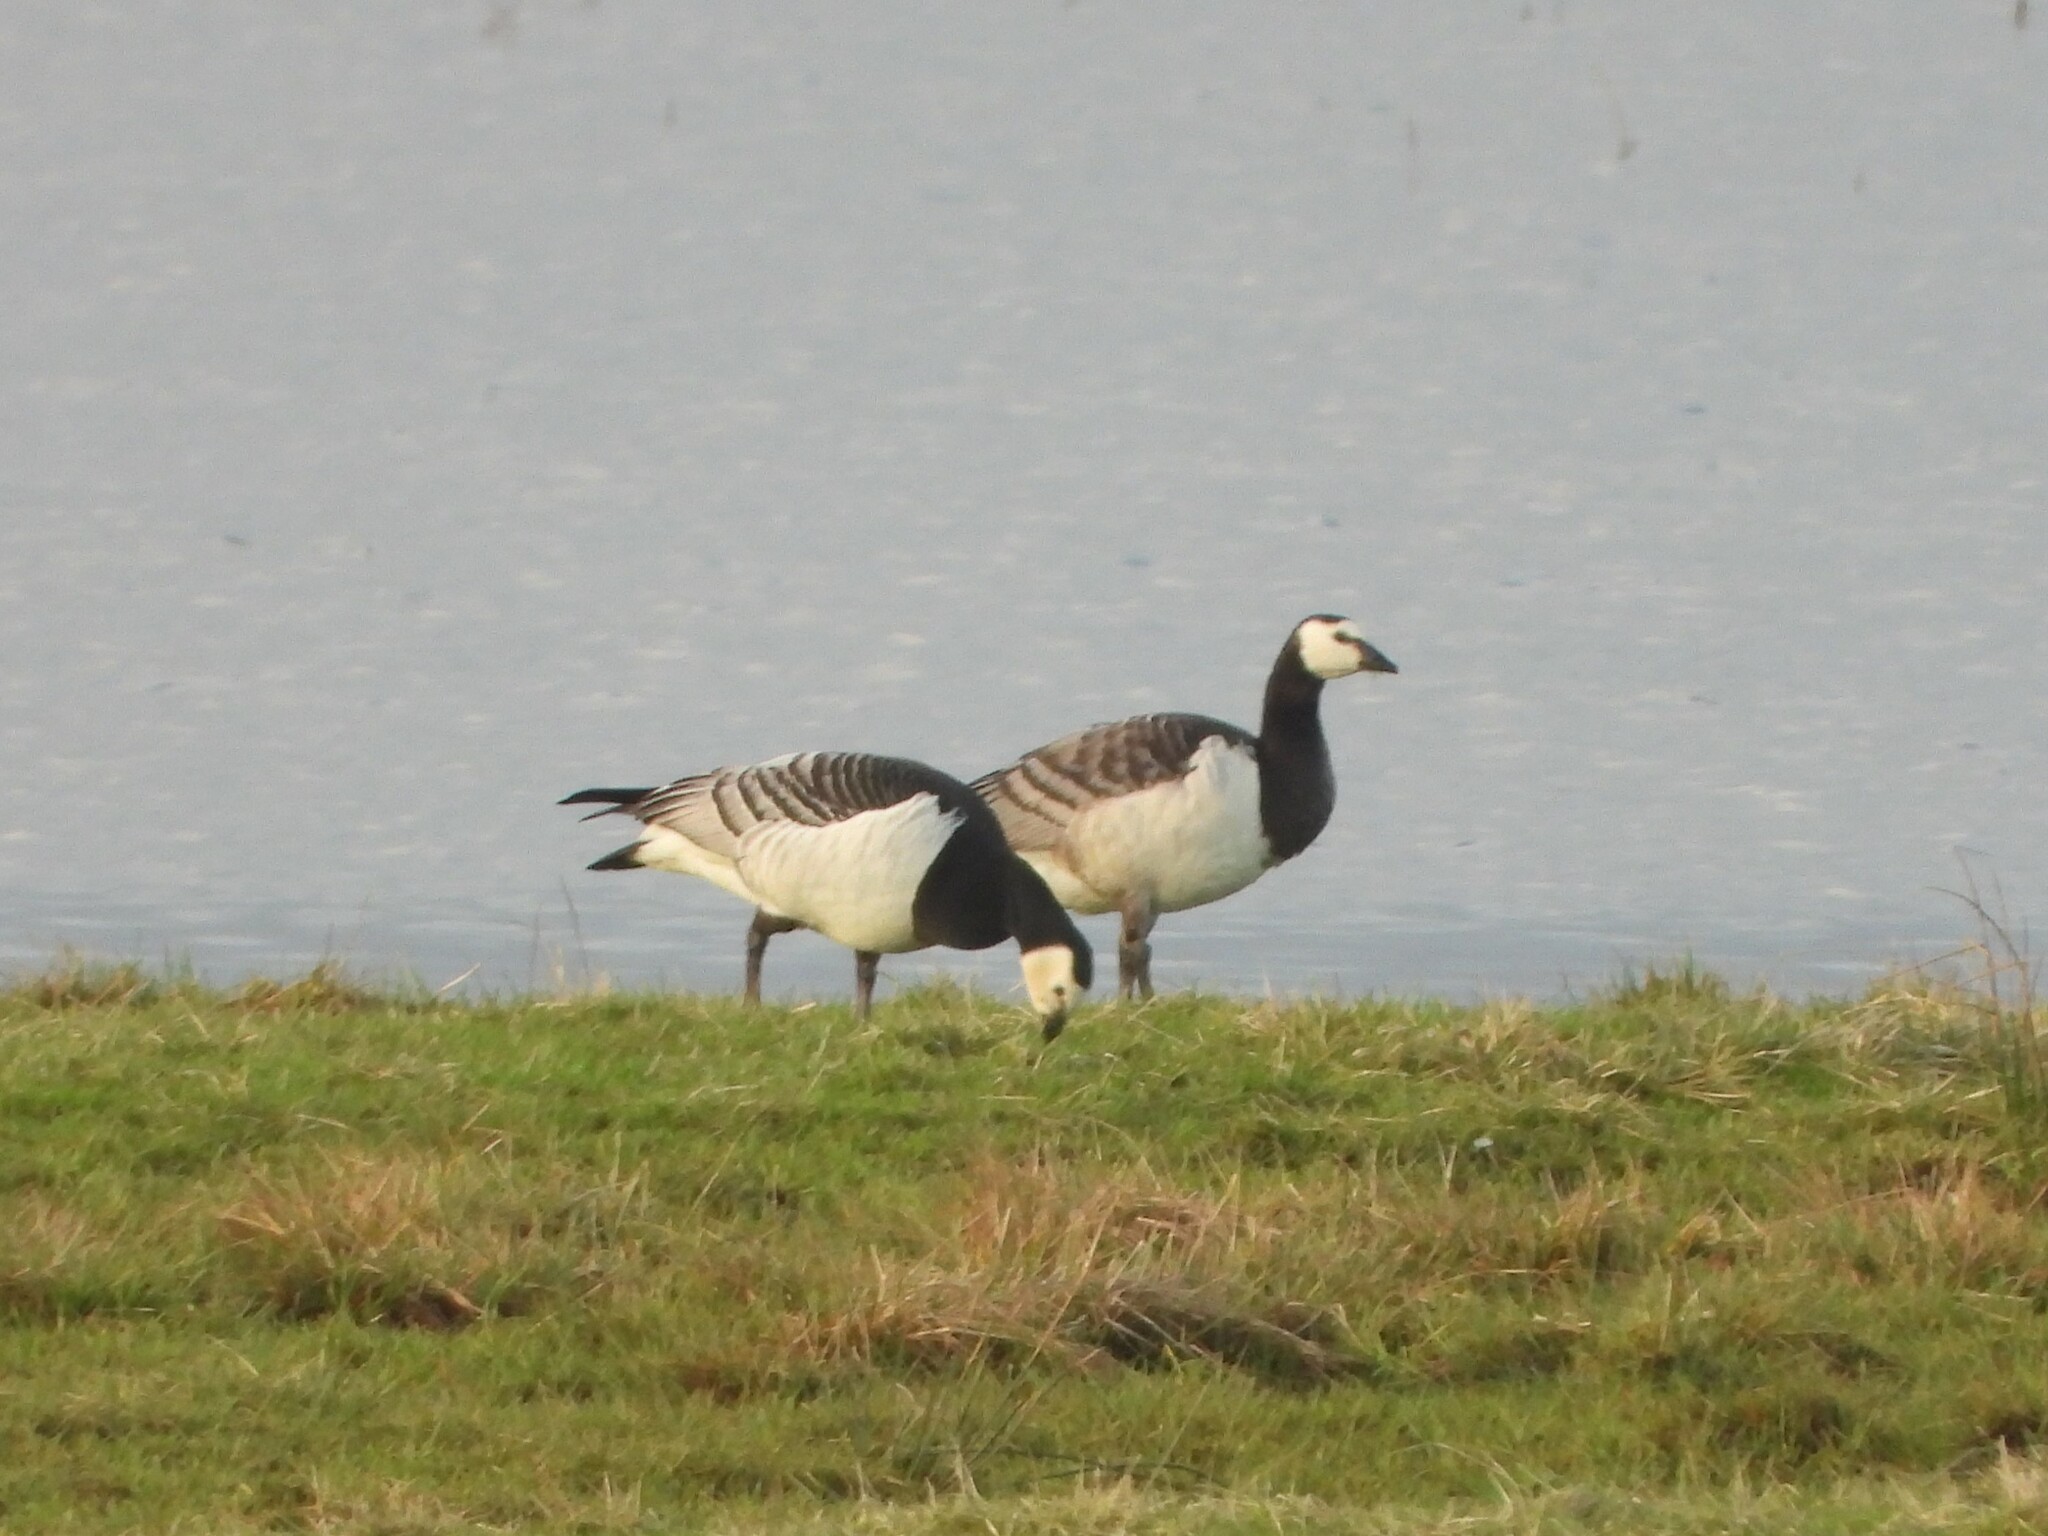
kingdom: Animalia
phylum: Chordata
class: Aves
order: Anseriformes
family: Anatidae
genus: Branta
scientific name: Branta leucopsis
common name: Barnacle goose
